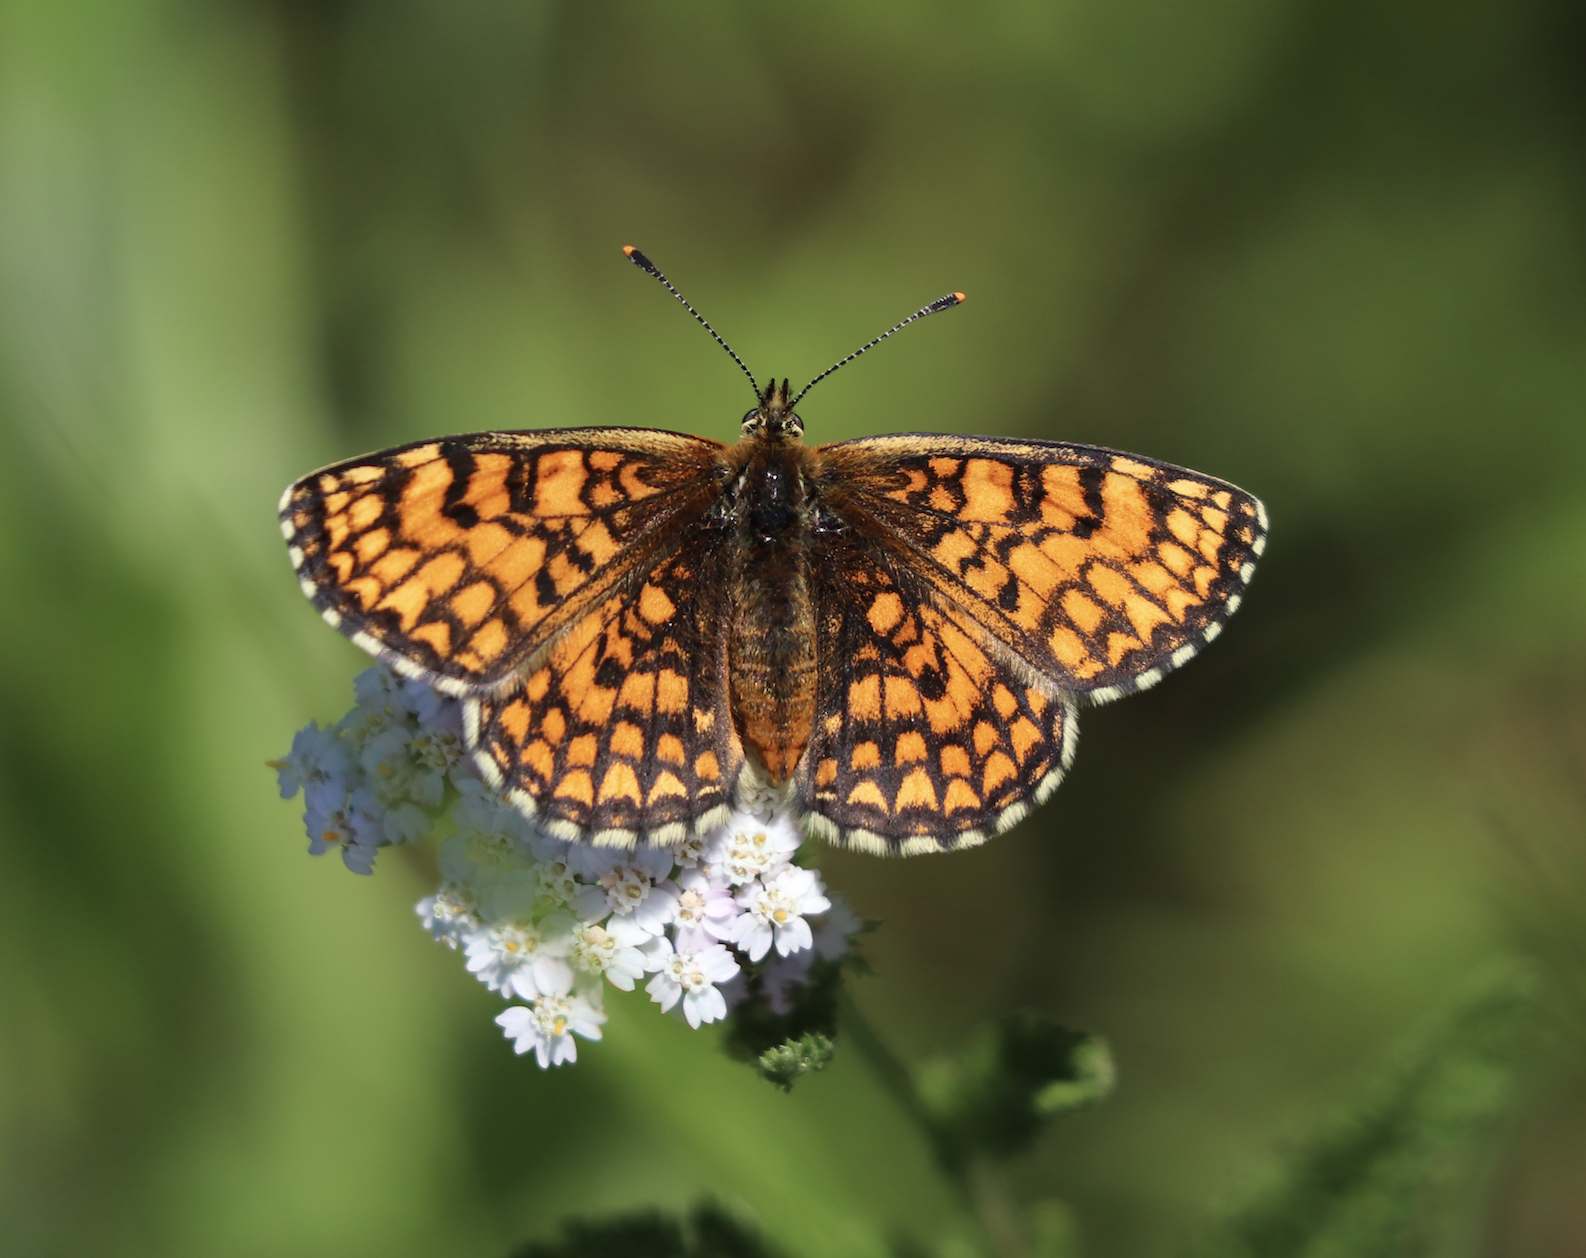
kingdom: Animalia
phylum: Arthropoda
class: Insecta
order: Lepidoptera
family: Nymphalidae
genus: Melitaea
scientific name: Melitaea athalia
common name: Heath fritillary
